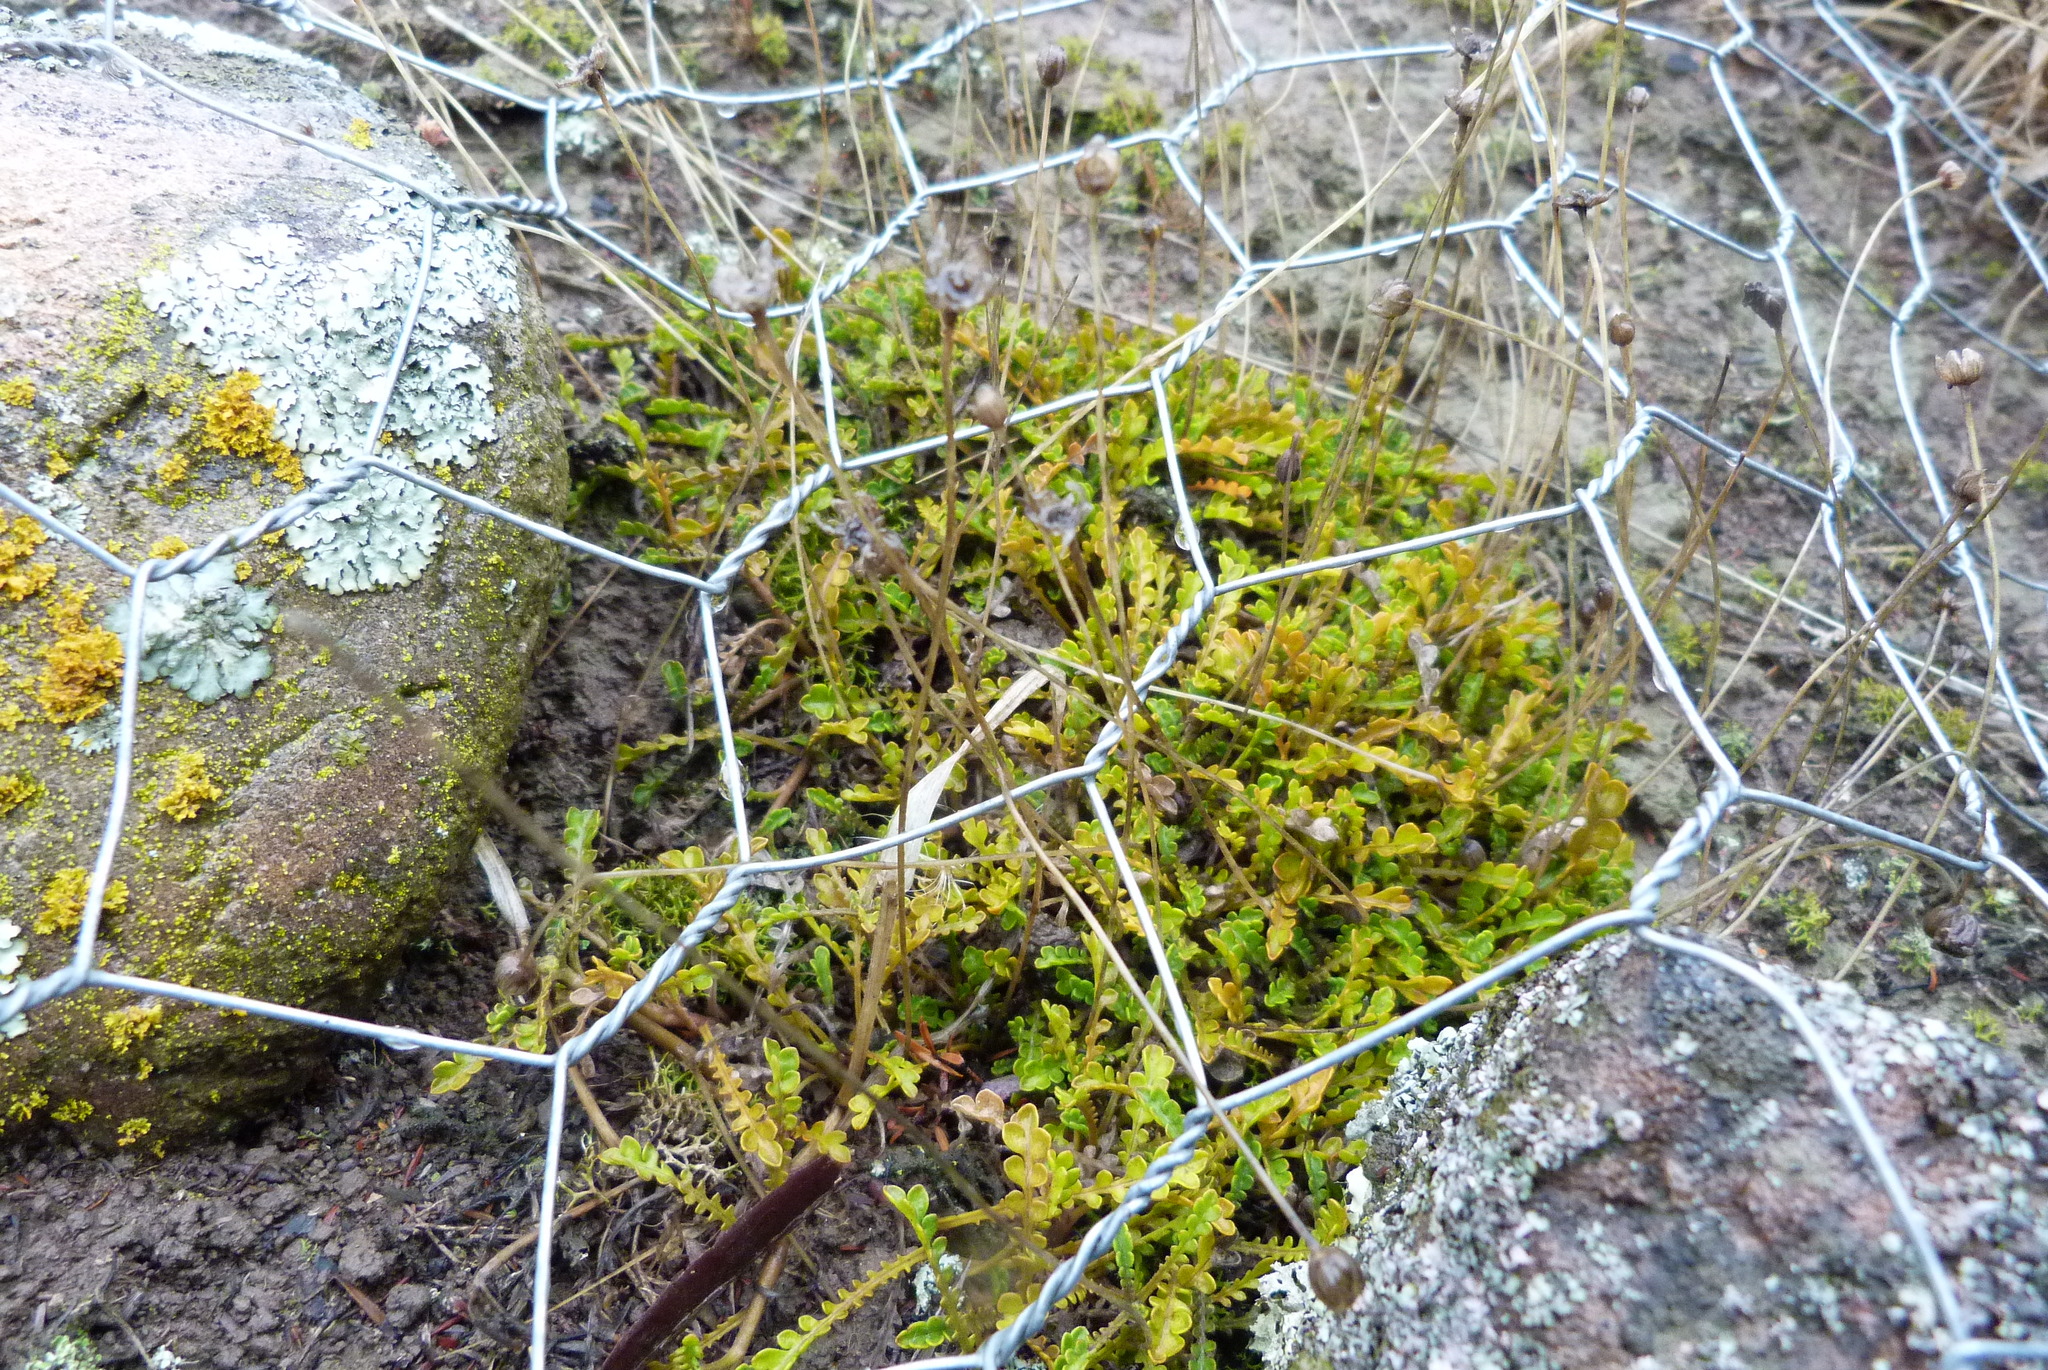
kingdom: Plantae
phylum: Tracheophyta
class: Magnoliopsida
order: Asterales
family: Asteraceae
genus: Brachyscome
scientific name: Brachyscome pinnata
